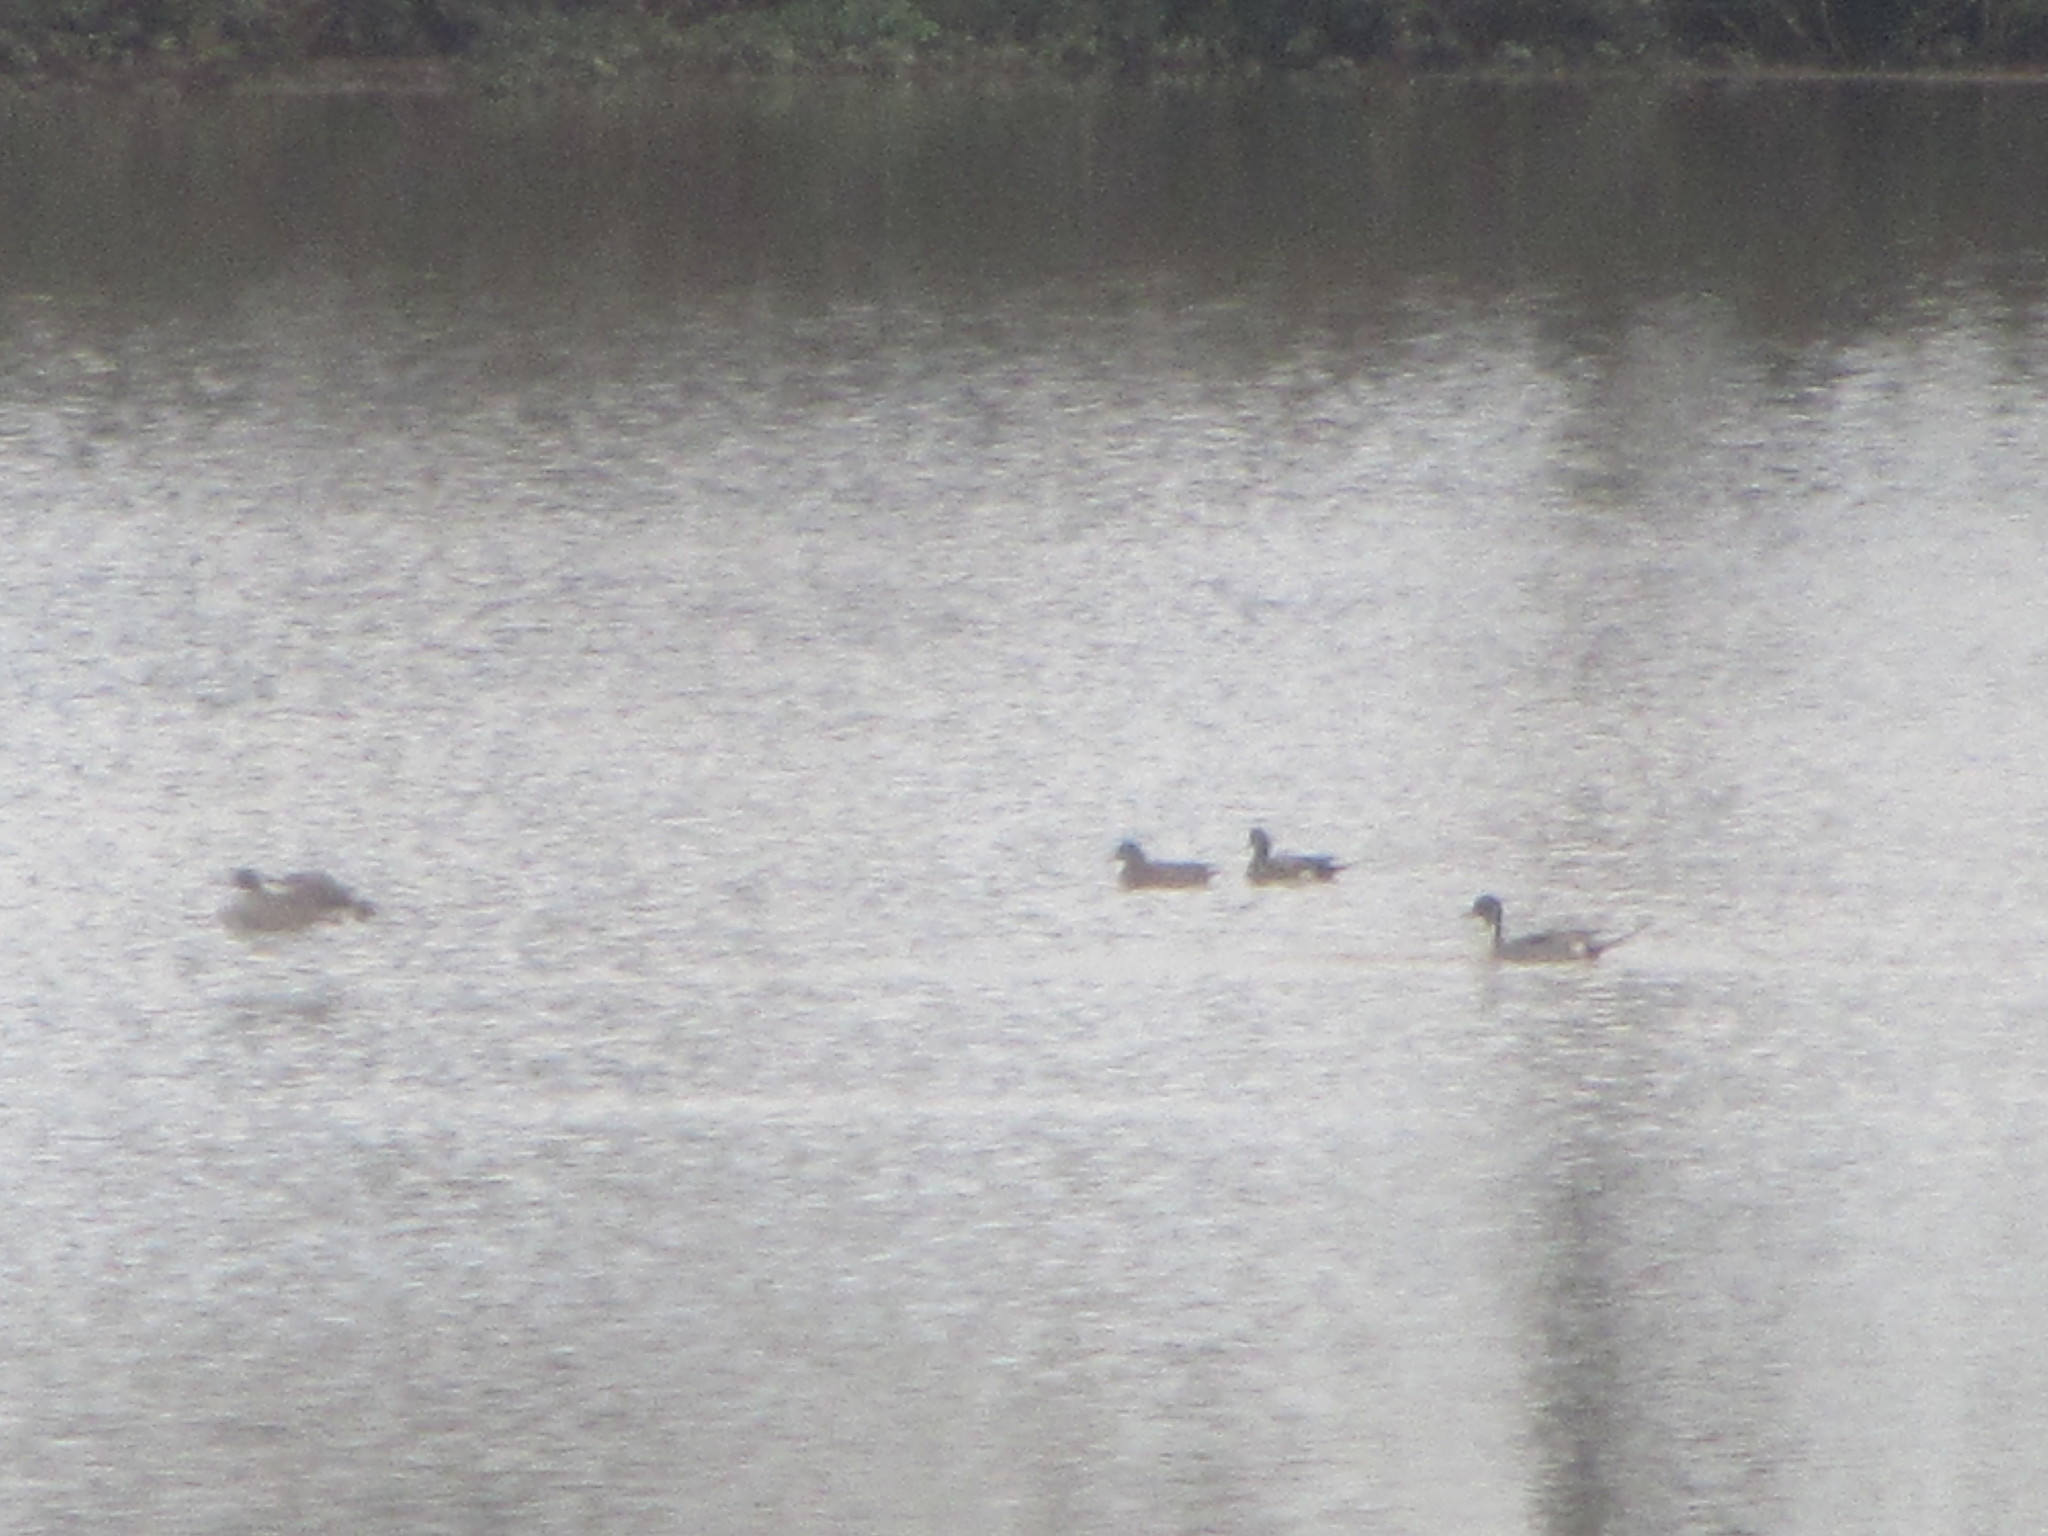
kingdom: Animalia
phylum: Chordata
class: Aves
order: Anseriformes
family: Anatidae
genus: Anas
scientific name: Anas acuta
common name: Northern pintail
